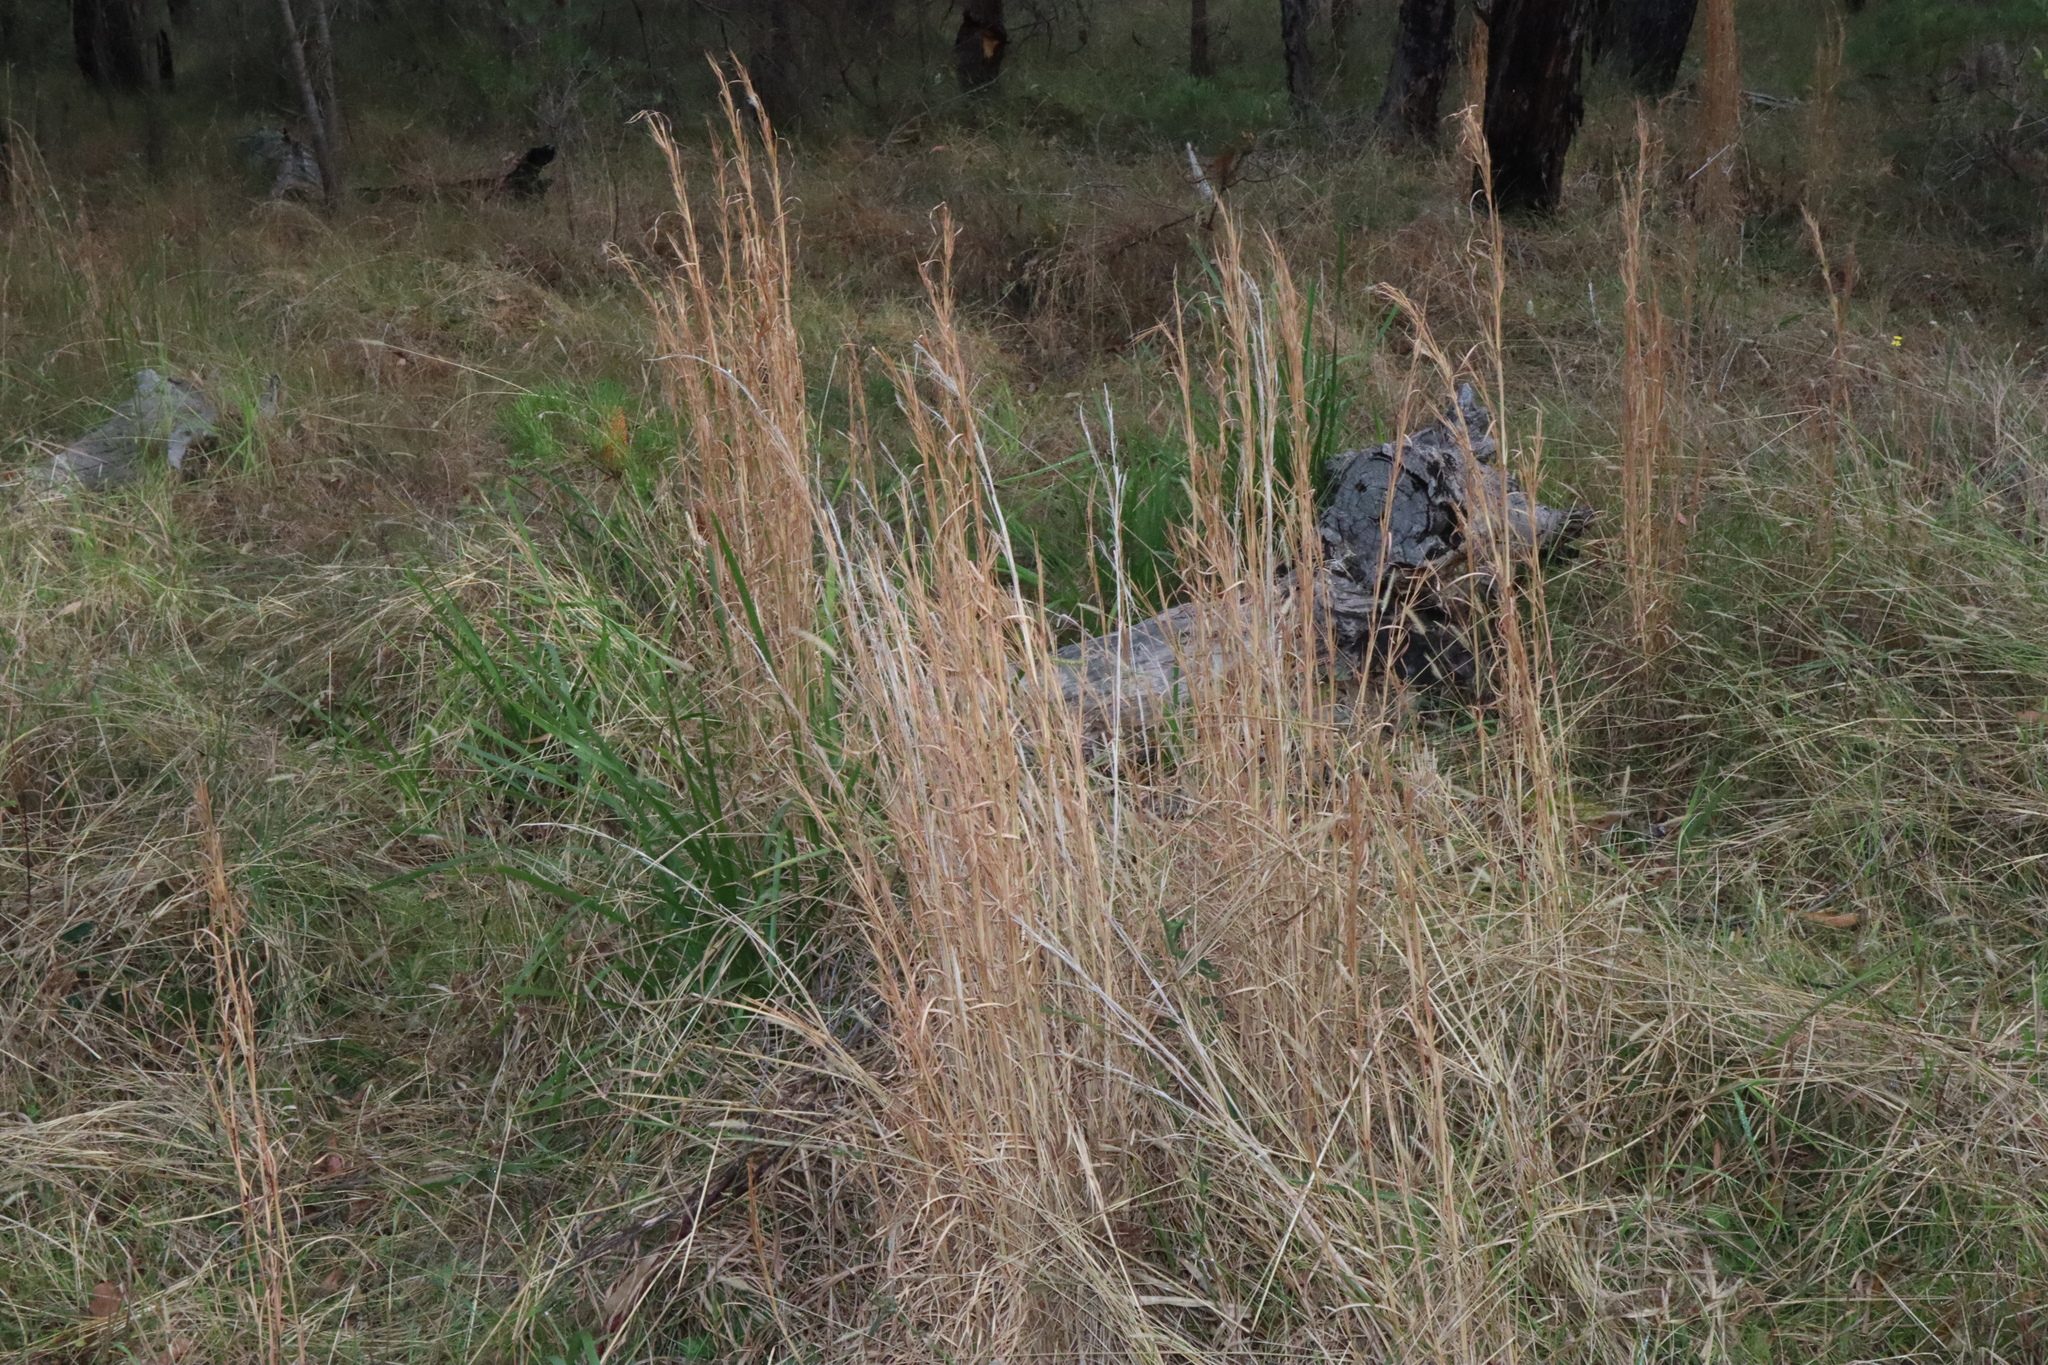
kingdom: Plantae
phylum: Tracheophyta
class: Liliopsida
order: Poales
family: Poaceae
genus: Andropogon
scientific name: Andropogon virginicus
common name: Broomsedge bluestem
